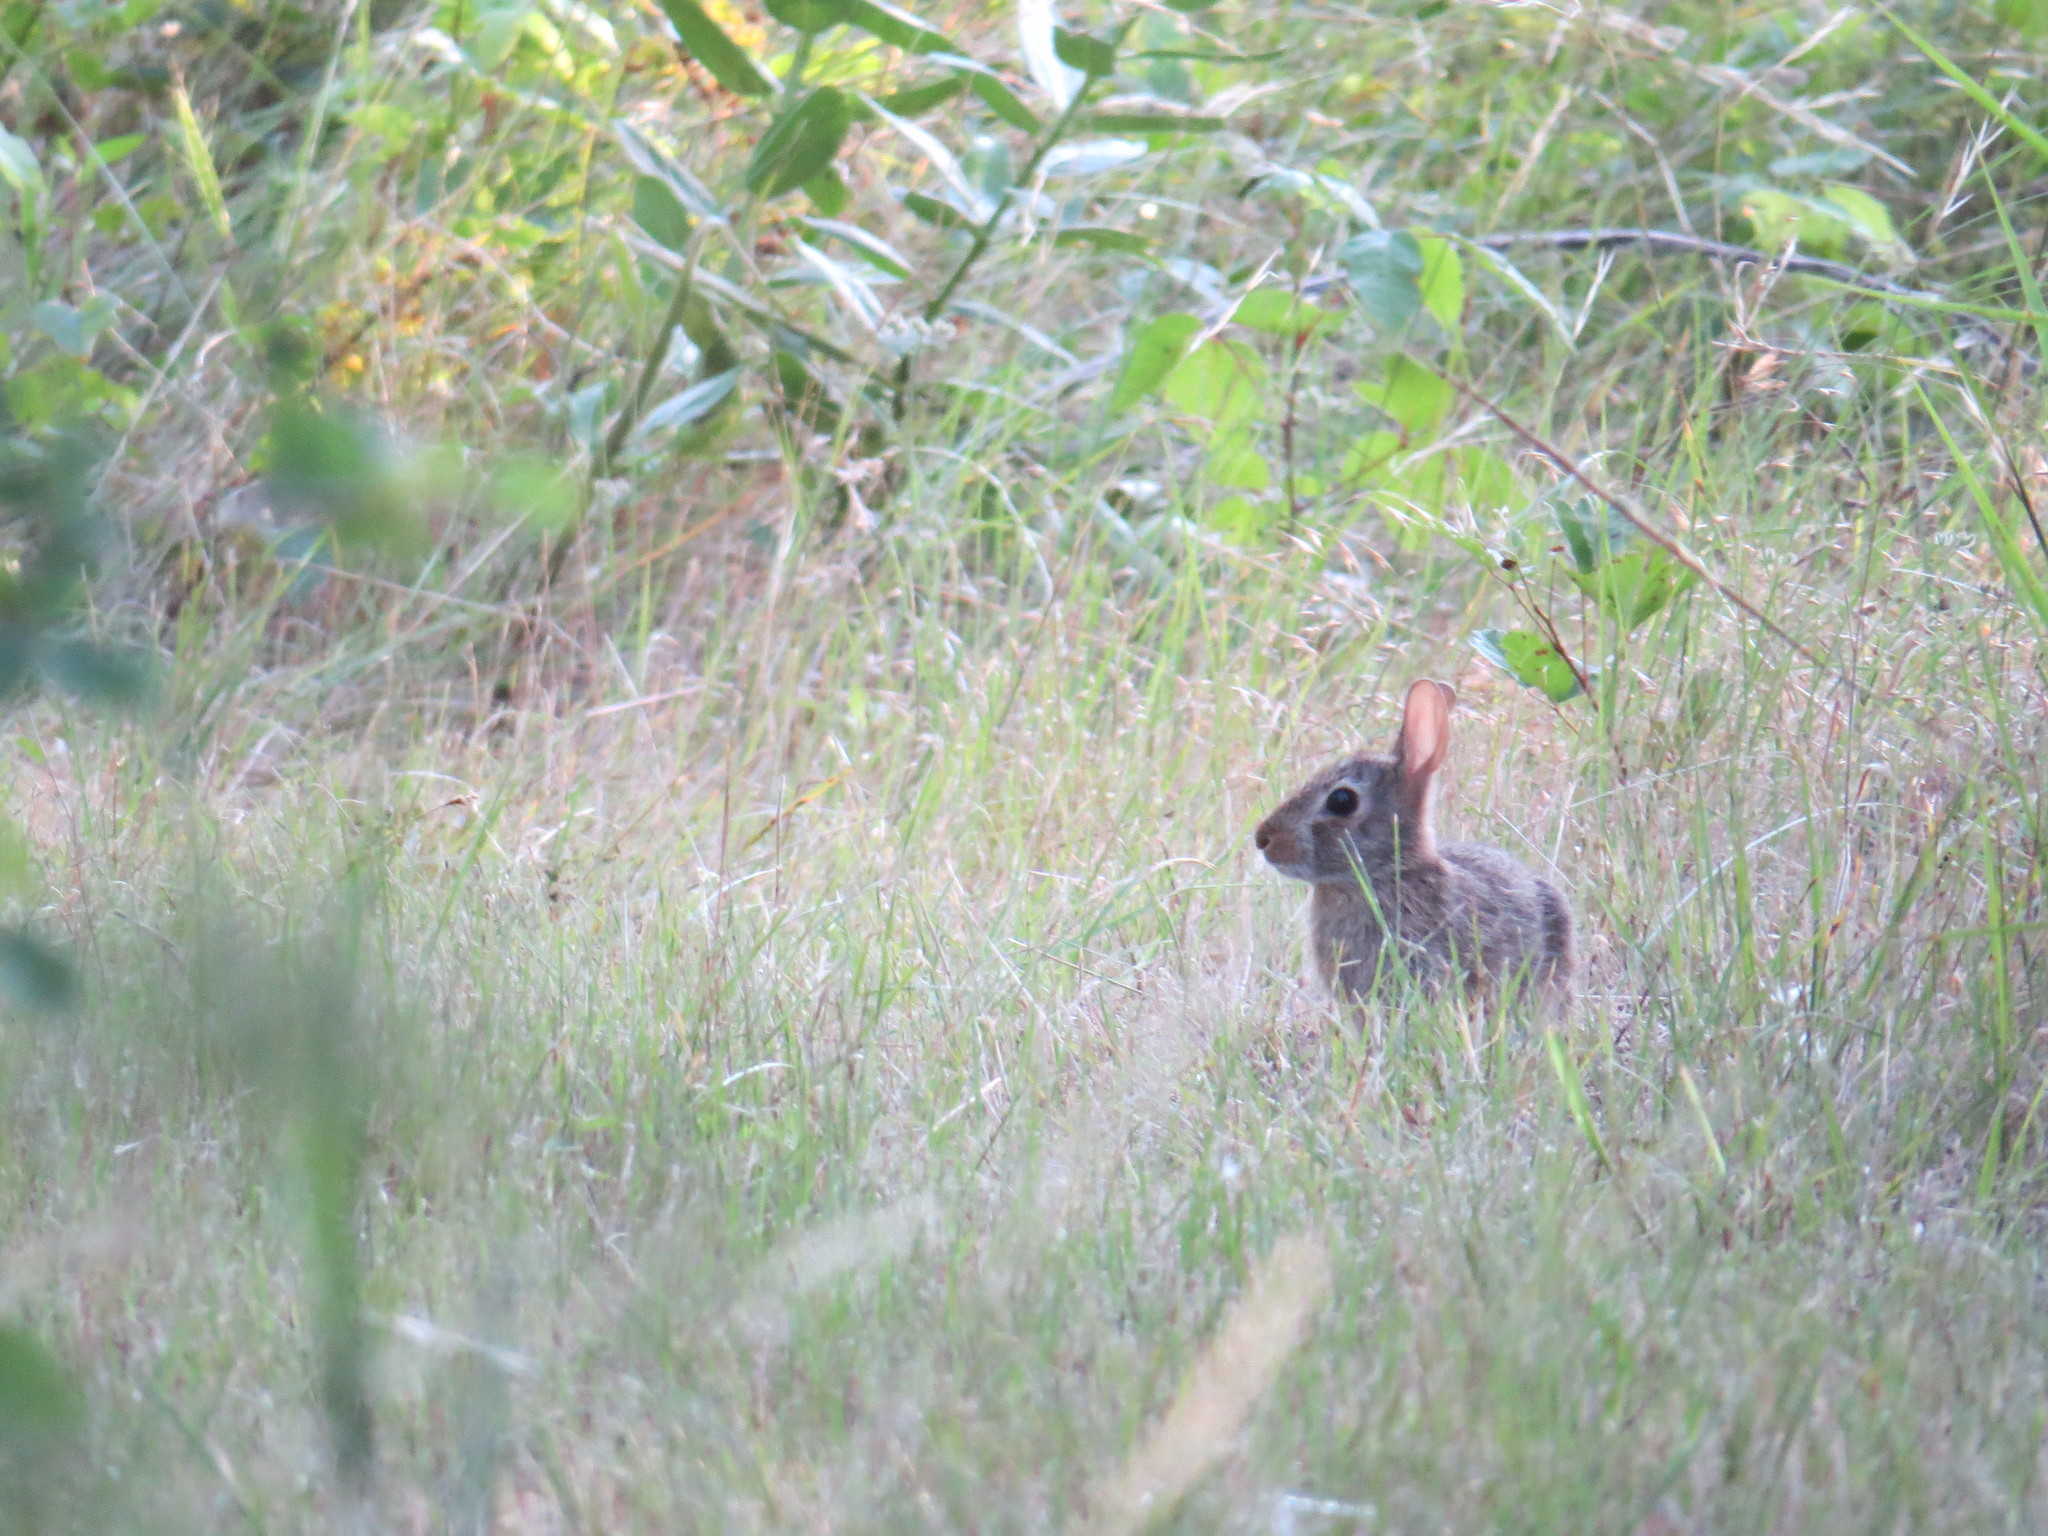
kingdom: Animalia
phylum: Chordata
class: Mammalia
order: Lagomorpha
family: Leporidae
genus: Sylvilagus
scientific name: Sylvilagus floridanus
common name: Eastern cottontail
